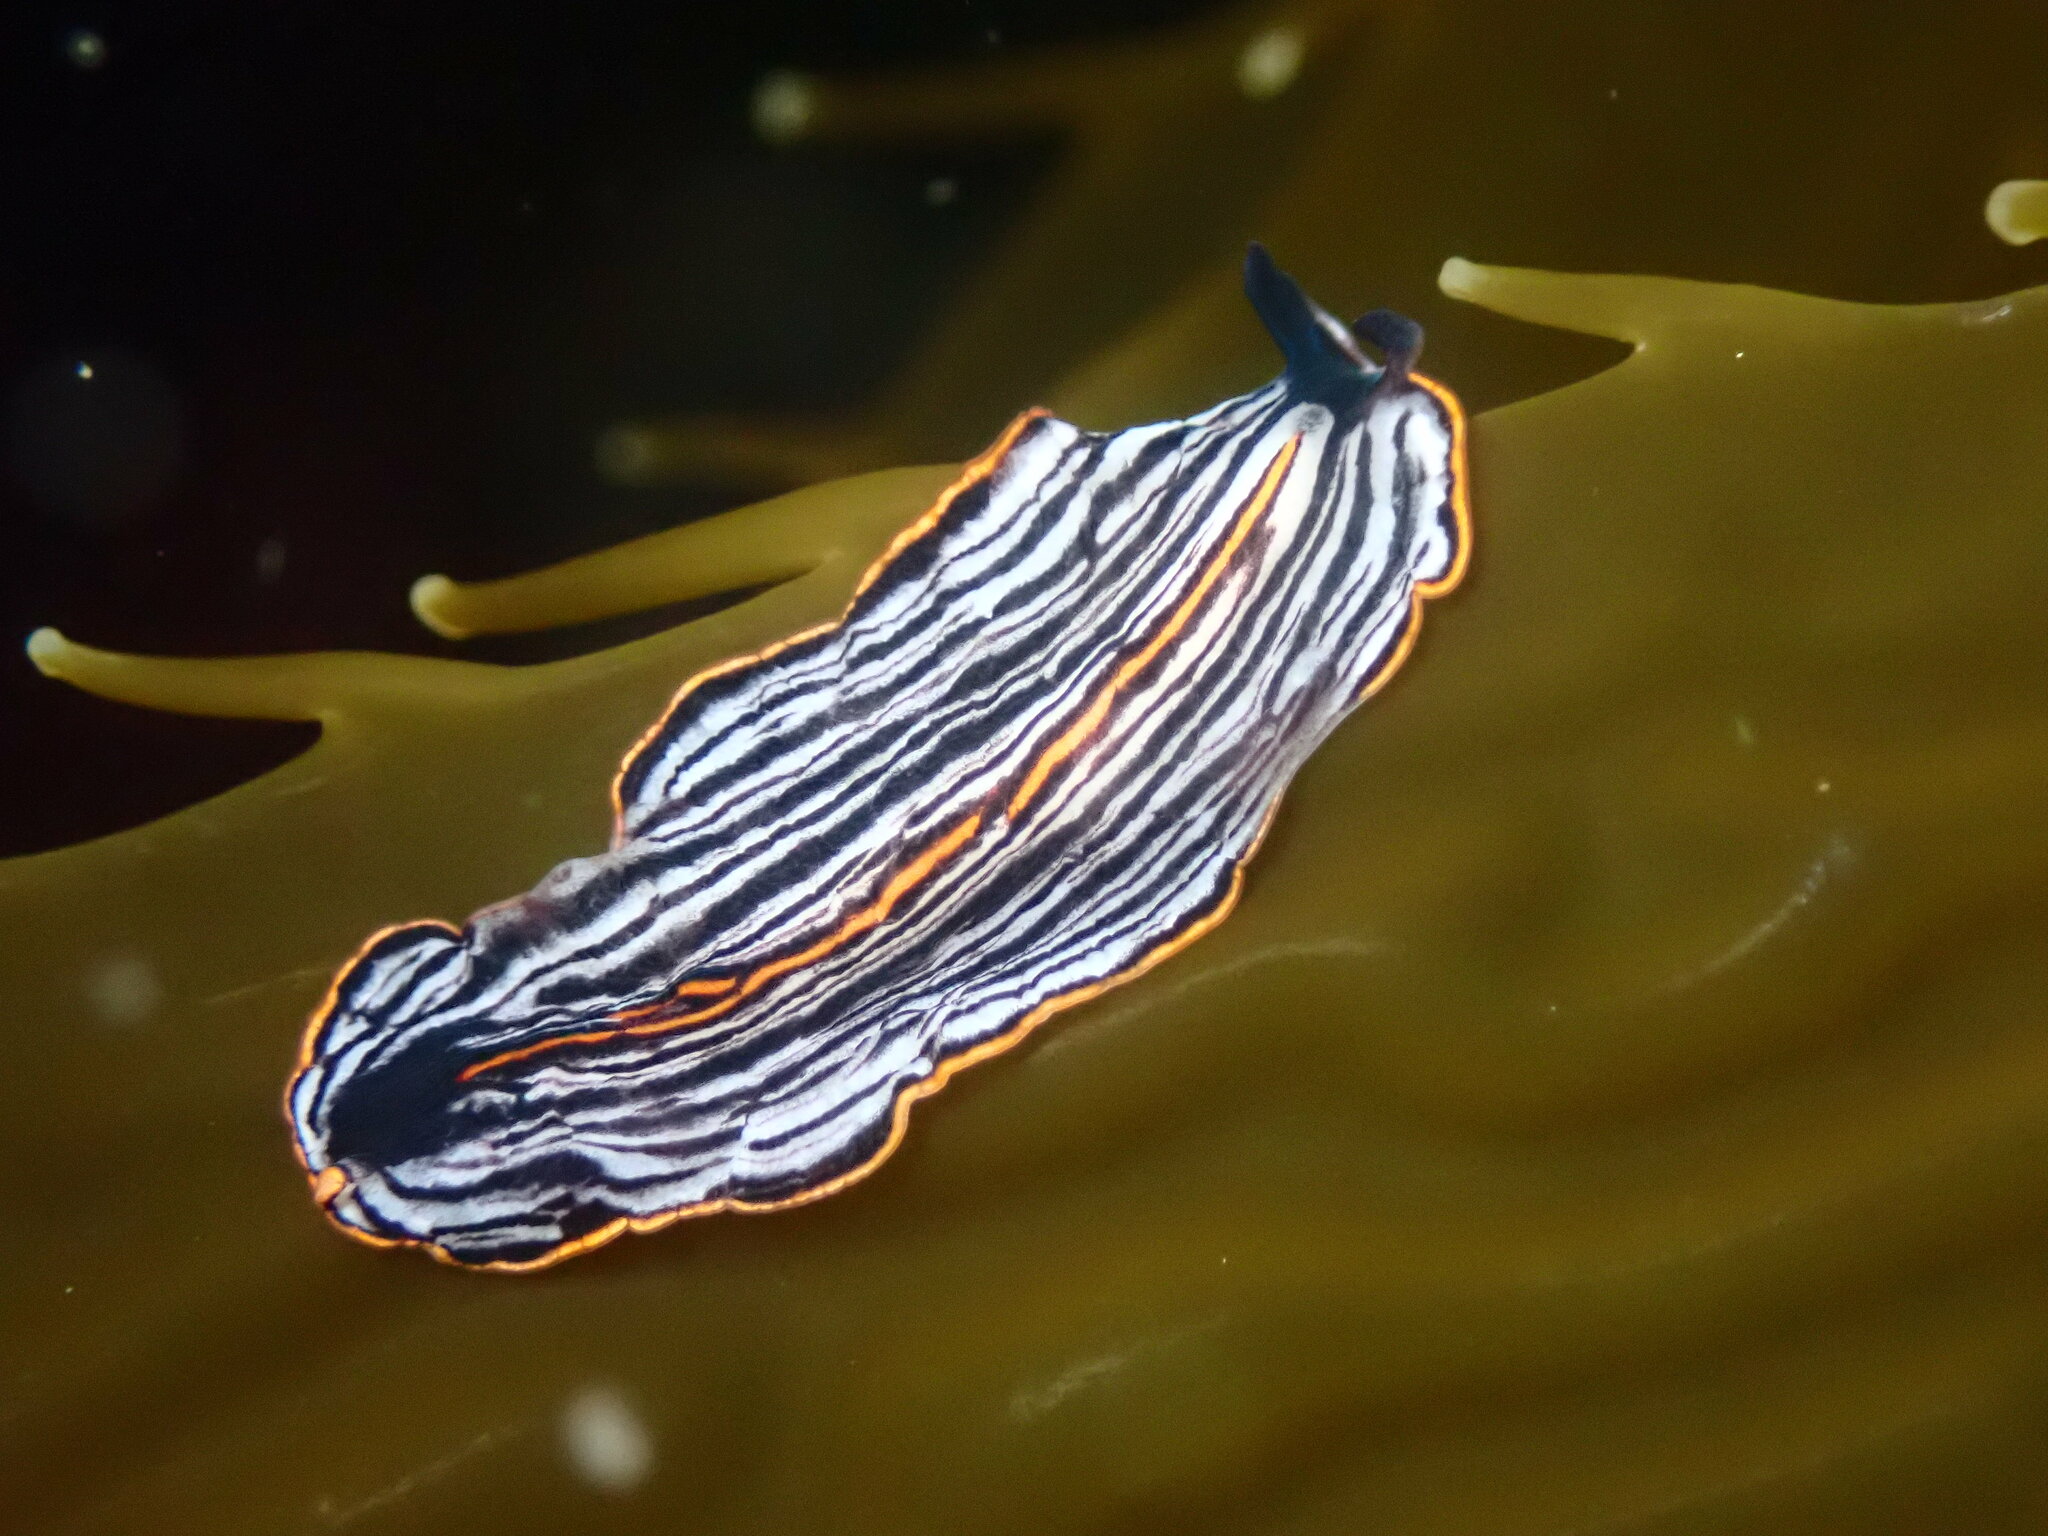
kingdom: Animalia
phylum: Platyhelminthes
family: Euryleptidae
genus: Praestheceraeus
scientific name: Praestheceraeus bellostriatus
